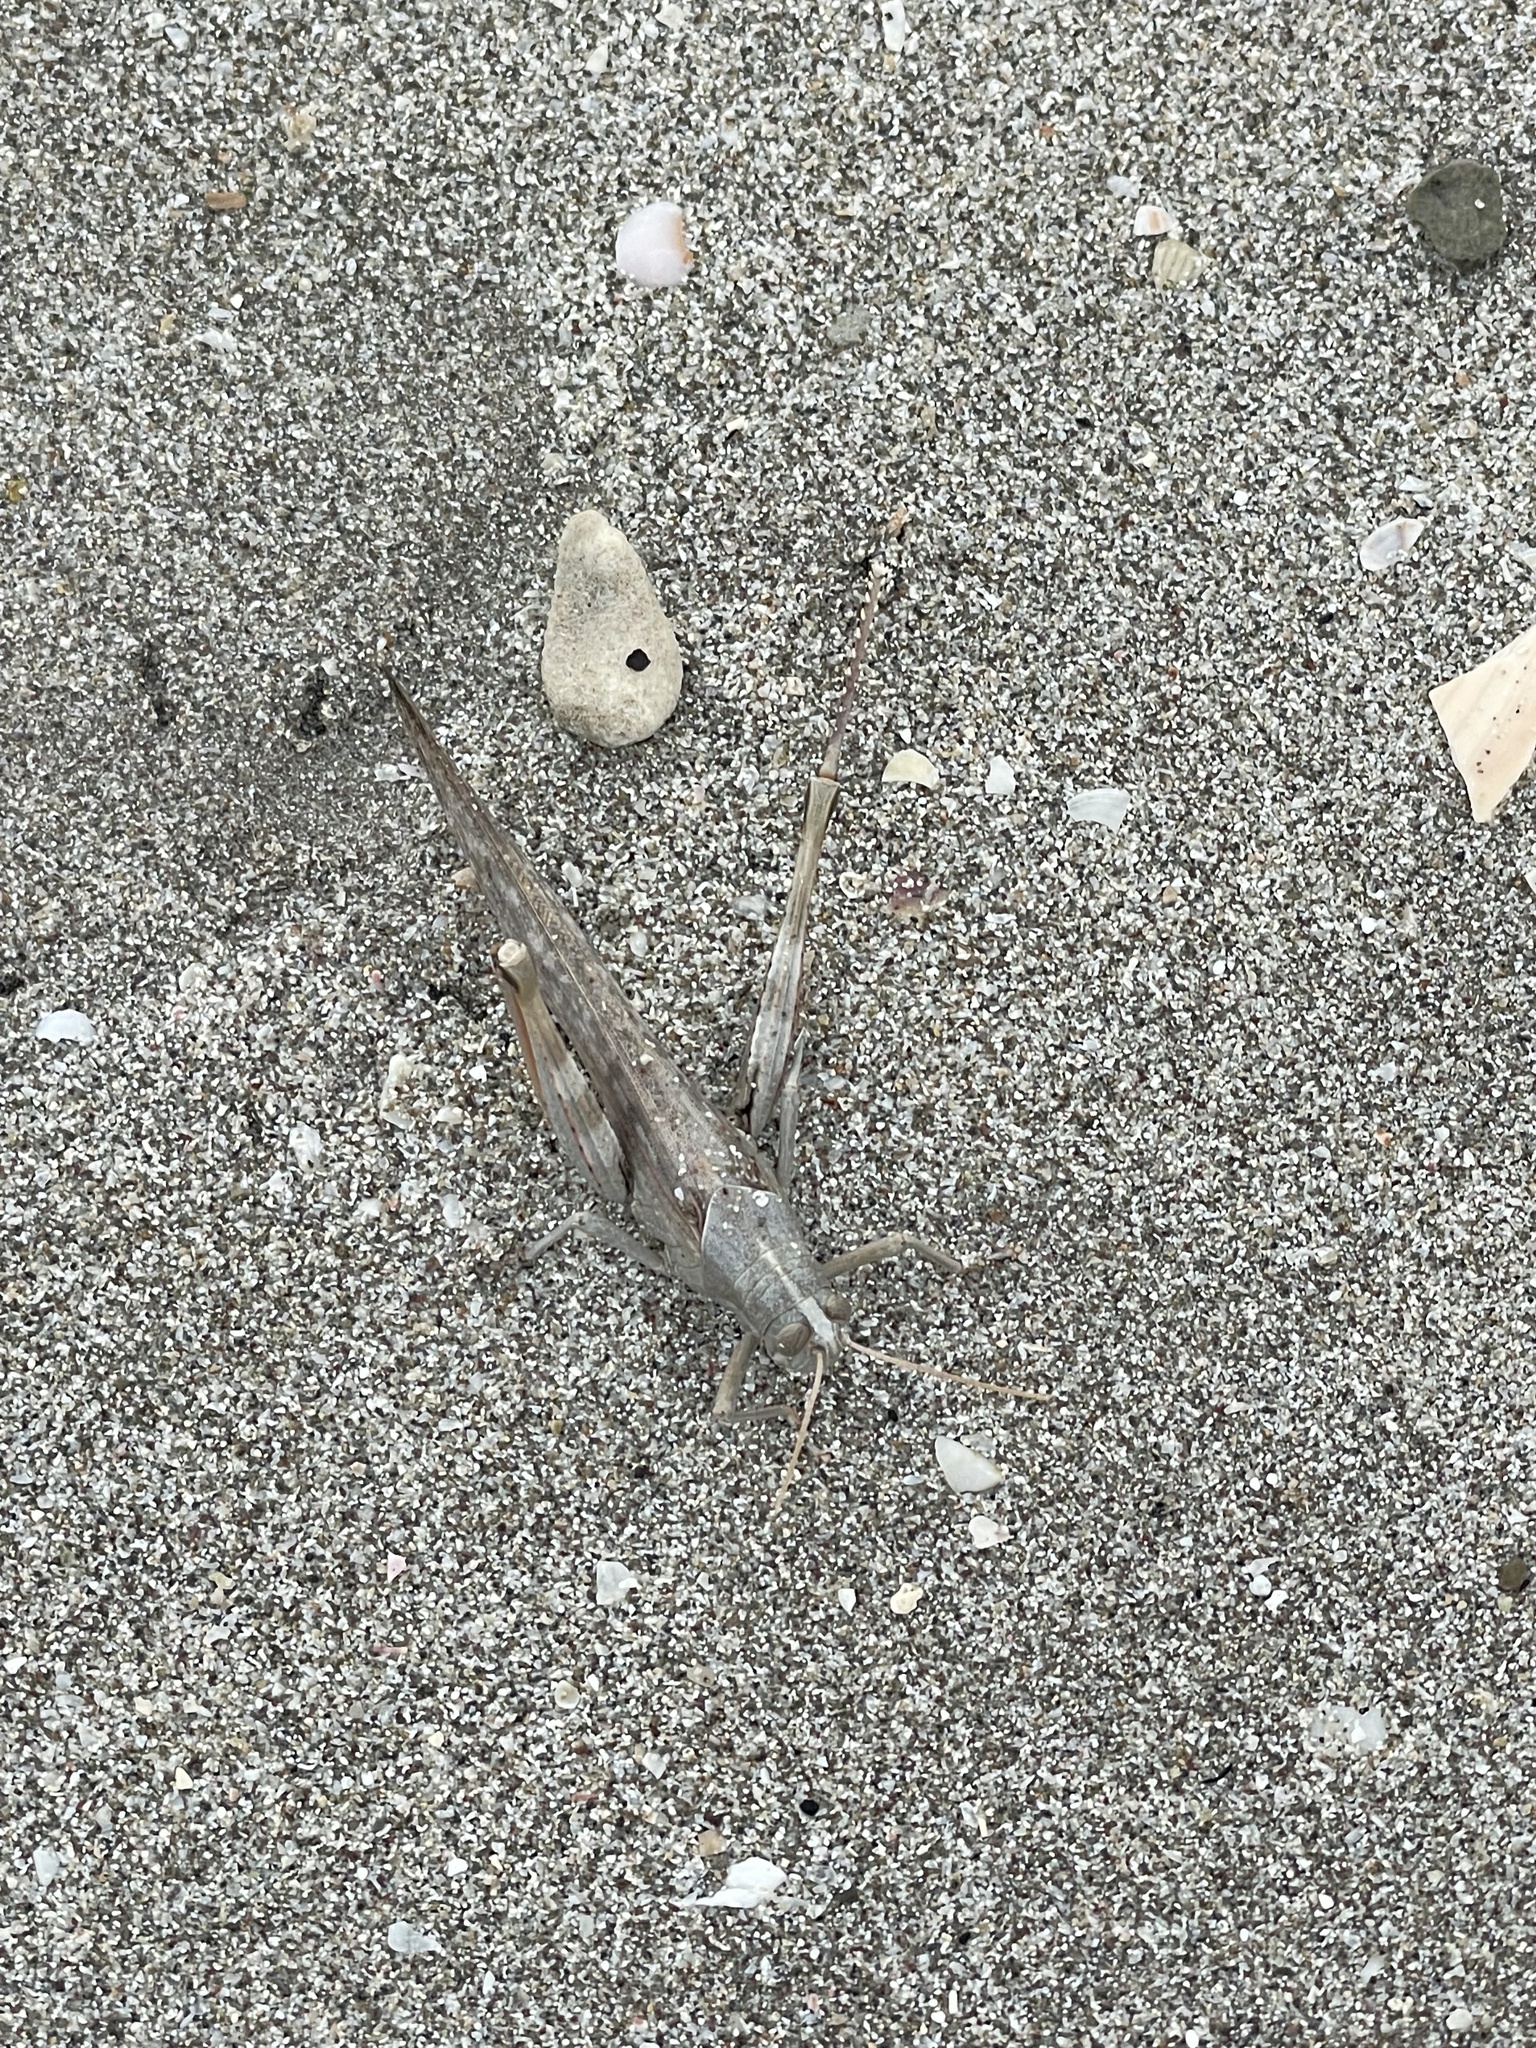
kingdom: Animalia
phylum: Arthropoda
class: Insecta
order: Orthoptera
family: Acrididae
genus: Schistocerca
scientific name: Schistocerca nitens
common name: Vagrant grasshopper
